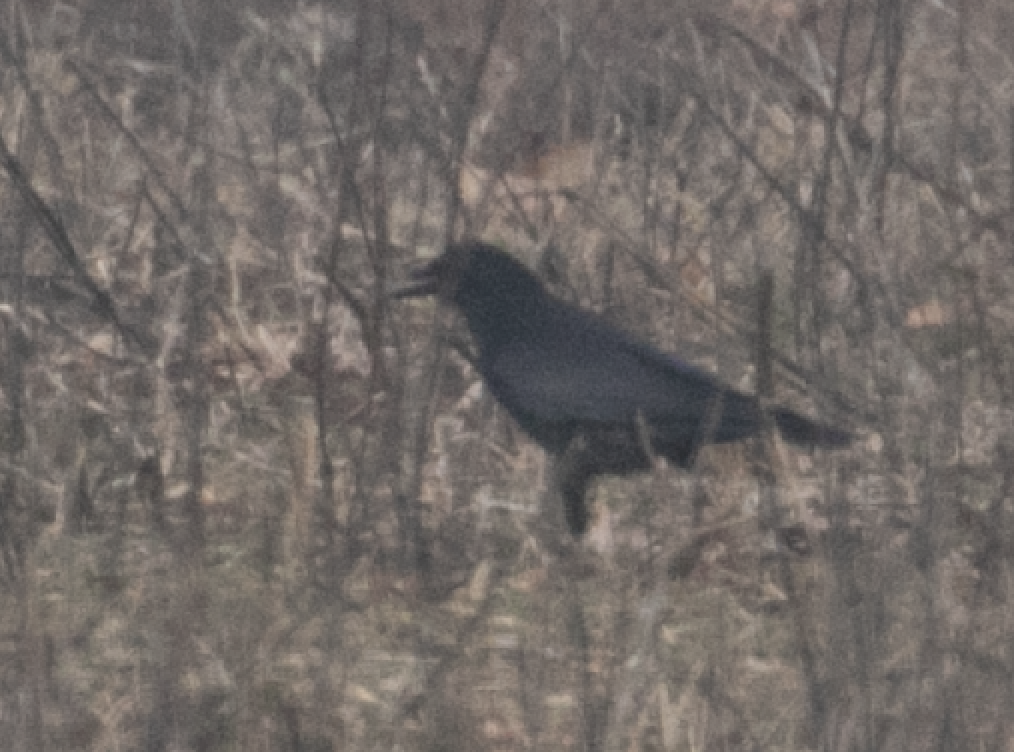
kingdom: Animalia
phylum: Chordata
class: Aves
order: Passeriformes
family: Corvidae
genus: Corvus
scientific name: Corvus corone
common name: Carrion crow
